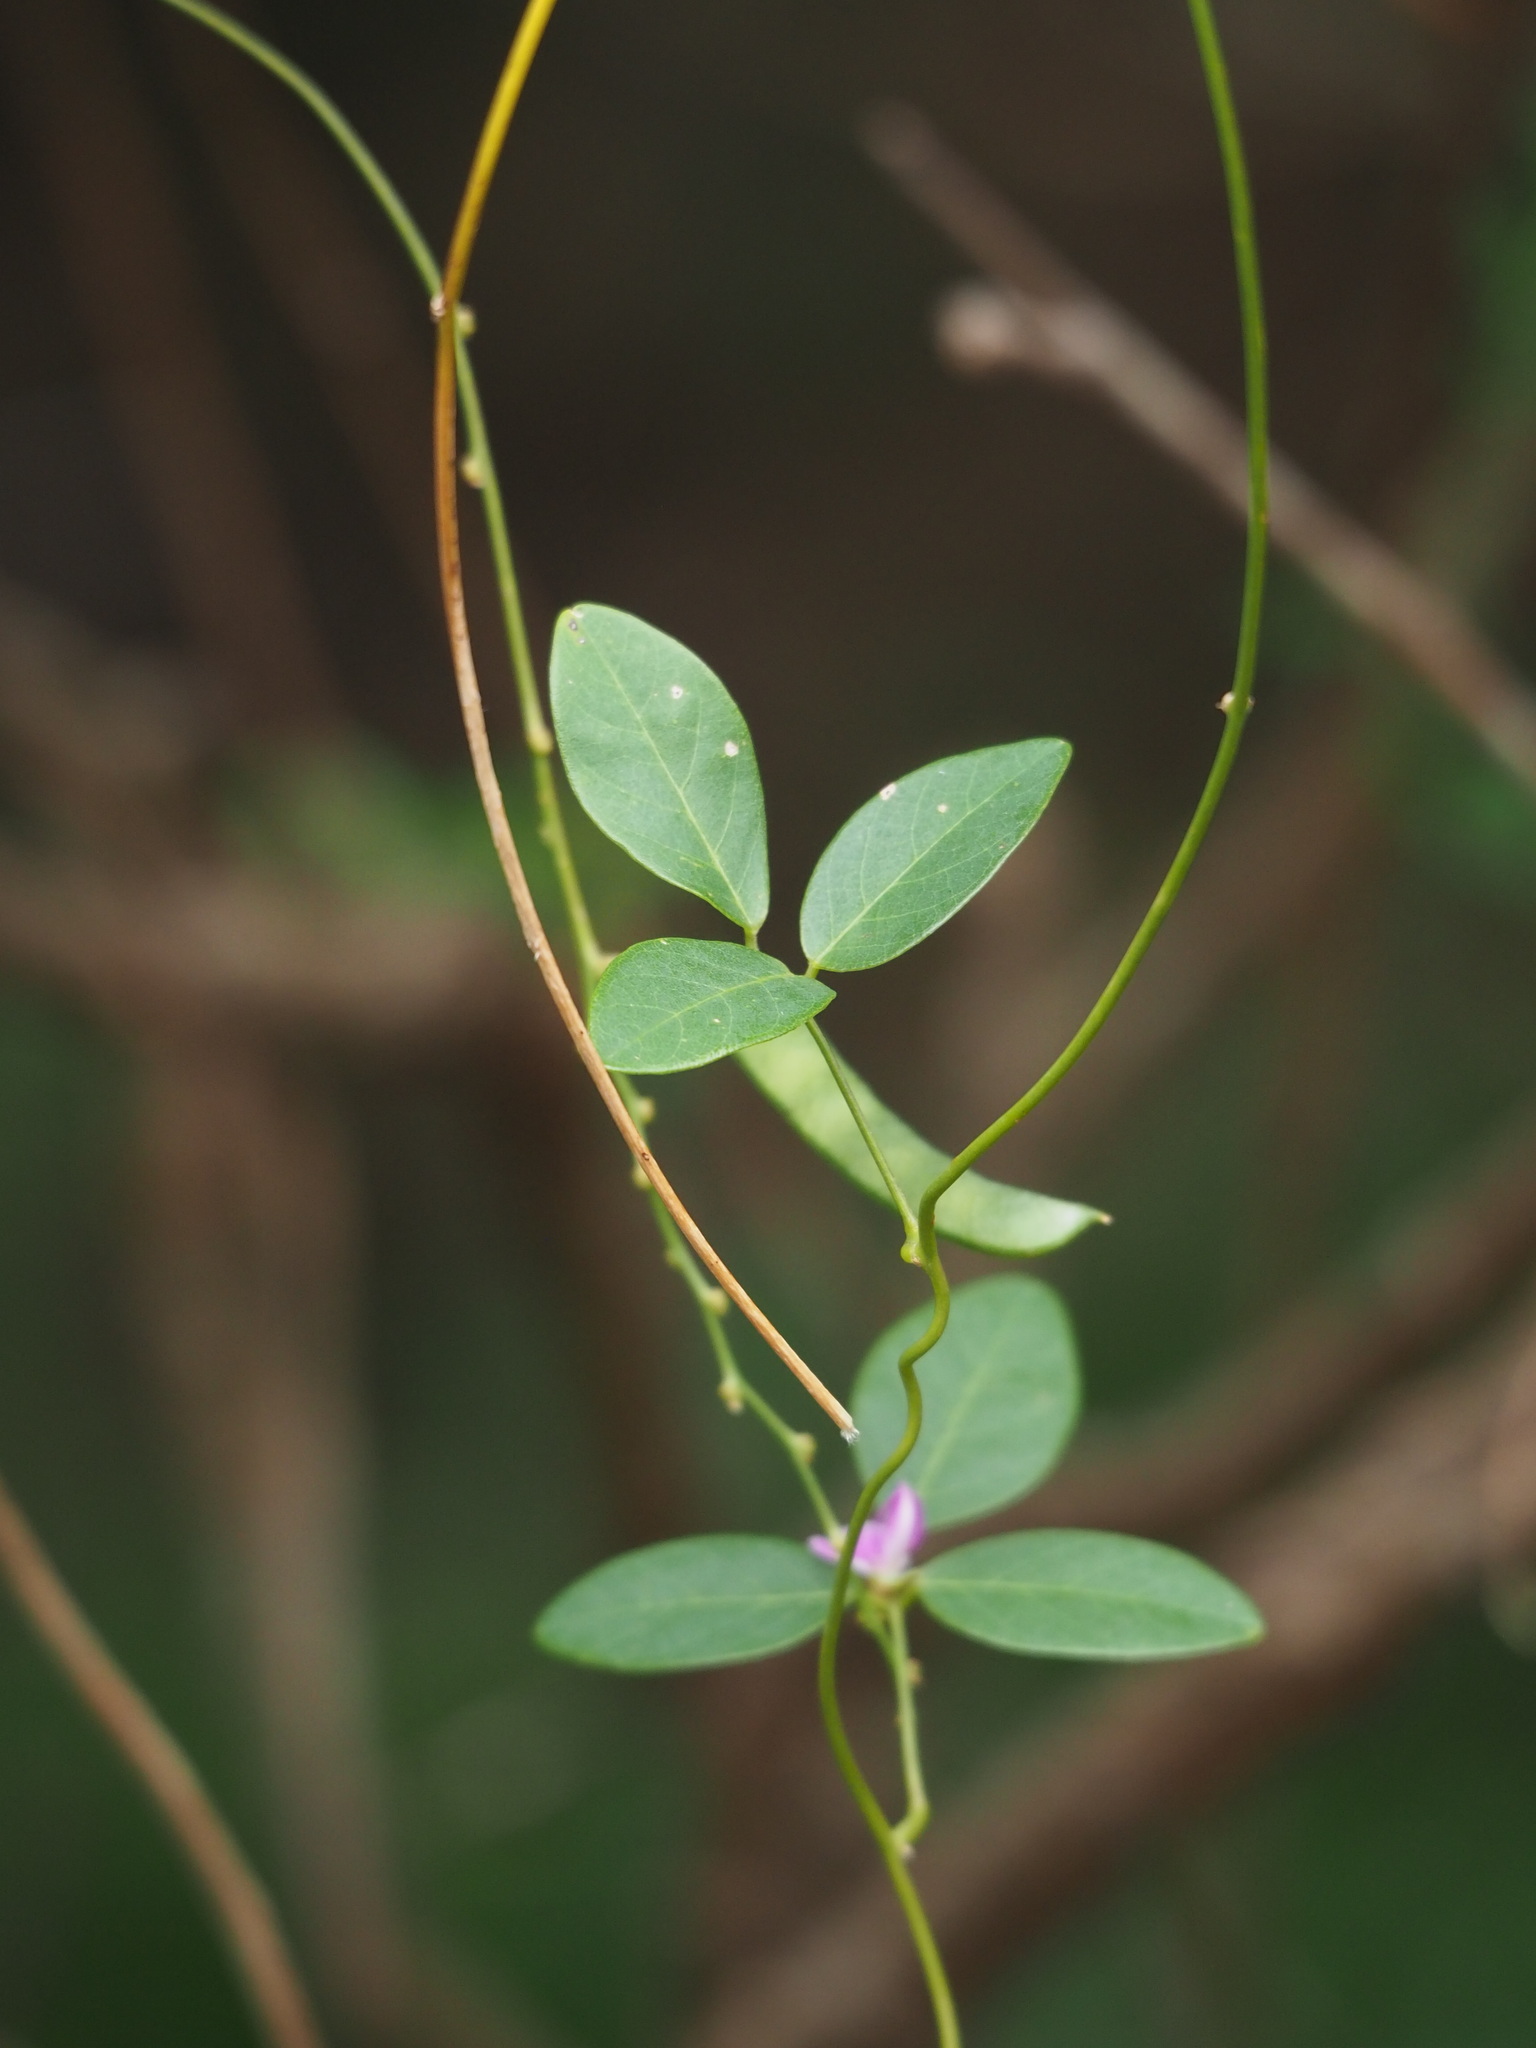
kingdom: Plantae
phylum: Tracheophyta
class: Magnoliopsida
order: Fabales
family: Fabaceae
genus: Galactia
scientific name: Galactia tenuiflora
